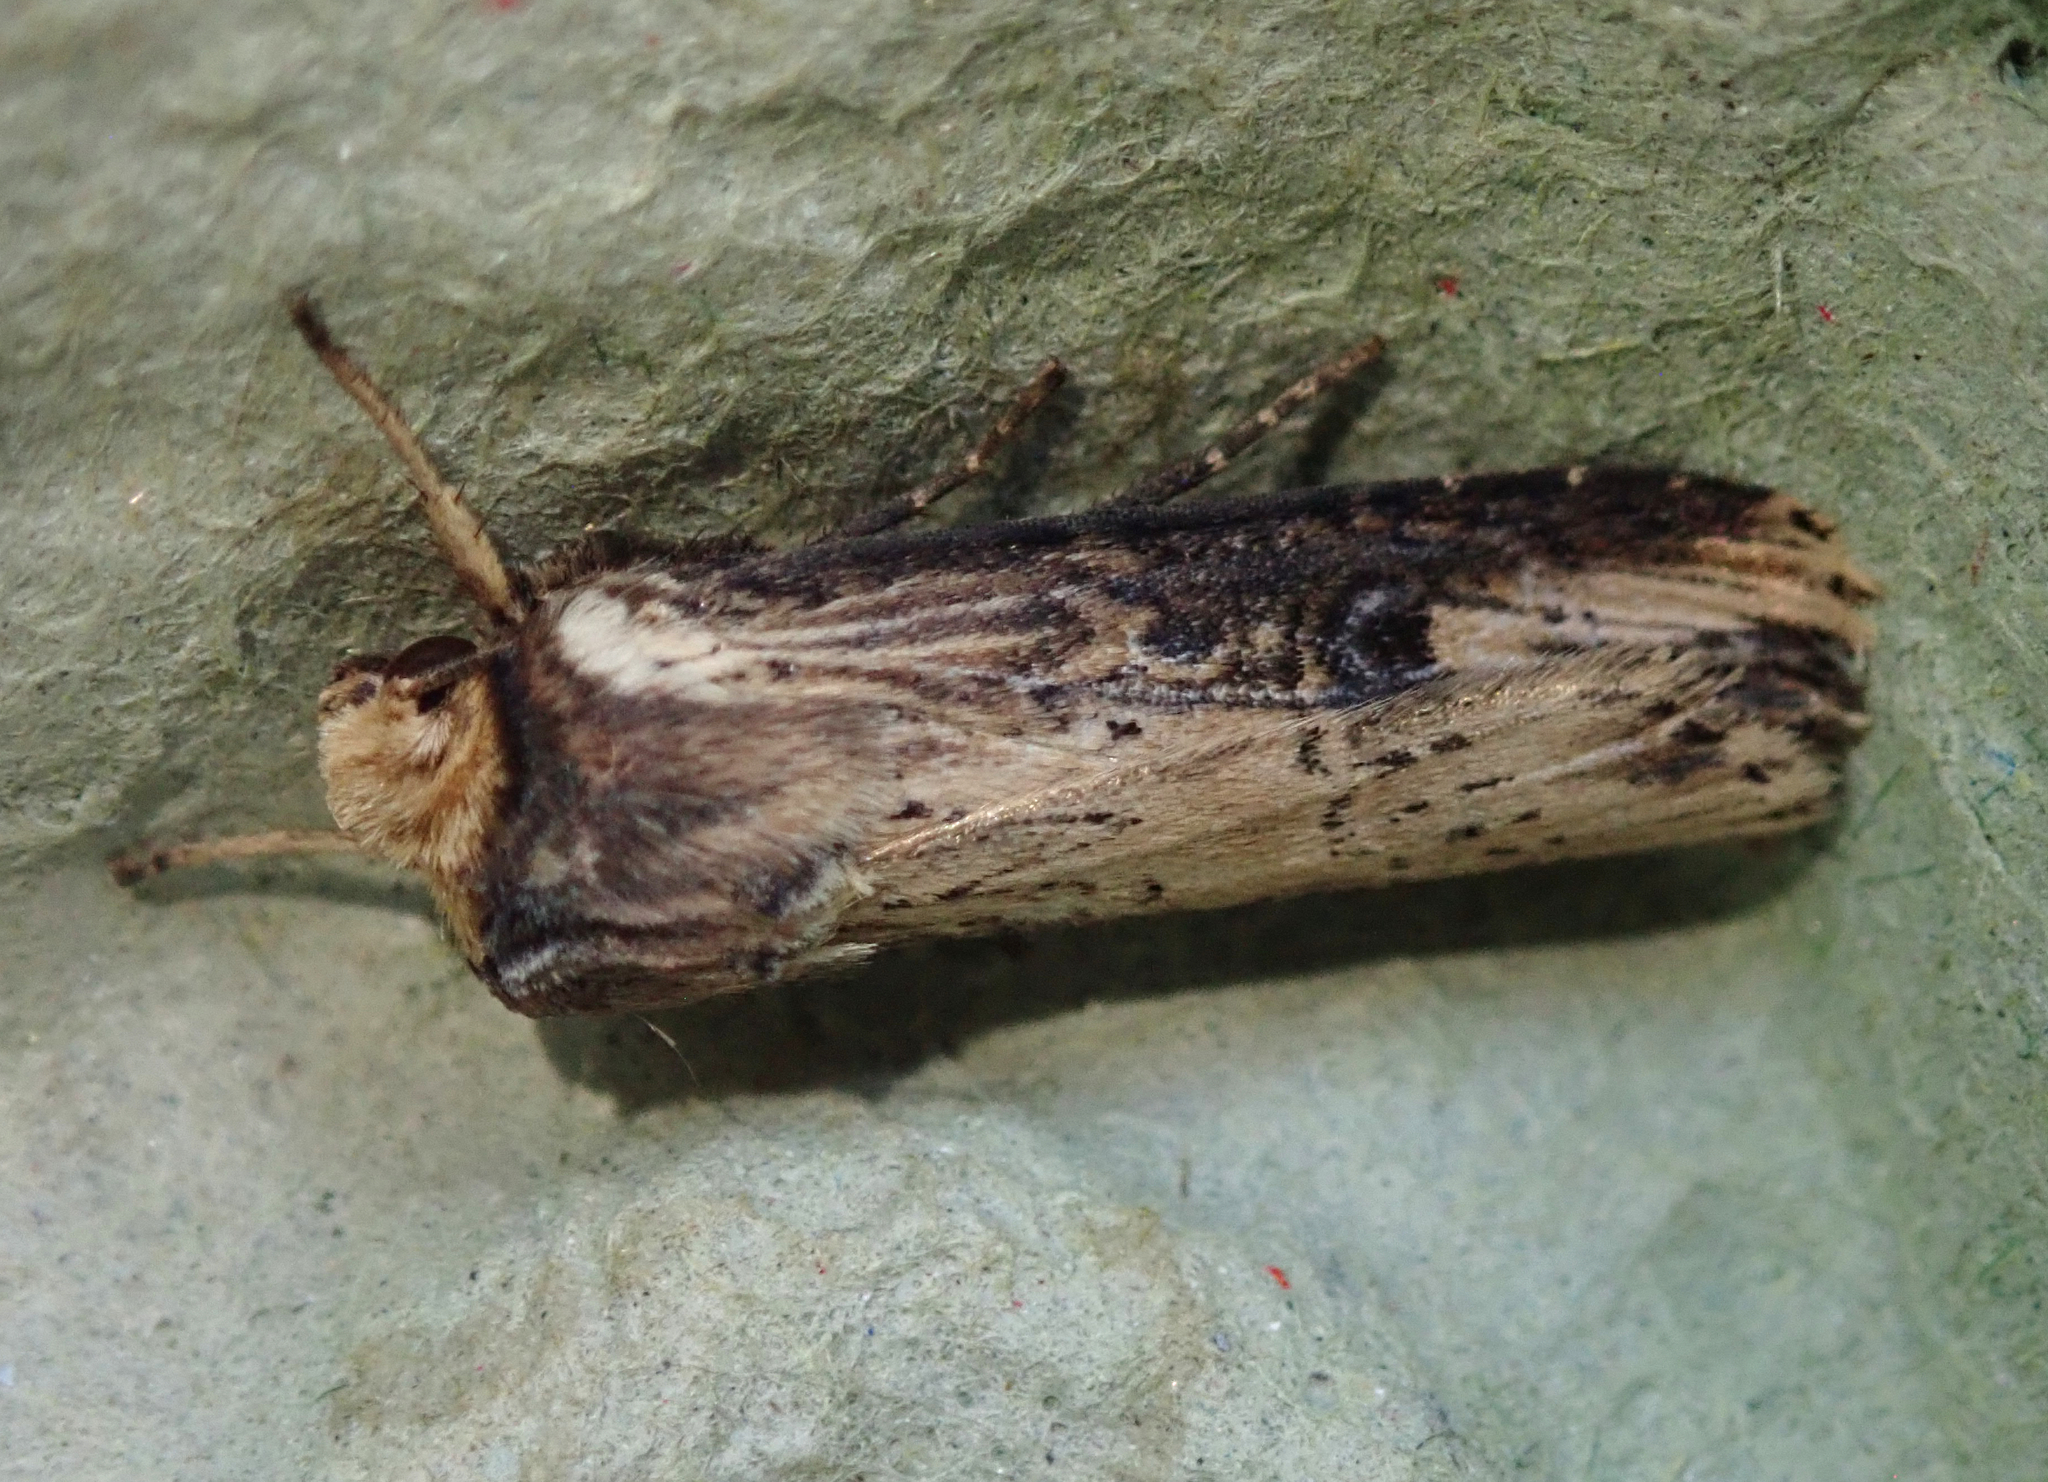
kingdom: Animalia
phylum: Arthropoda
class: Insecta
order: Lepidoptera
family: Noctuidae
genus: Axylia
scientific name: Axylia putris
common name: Flame
